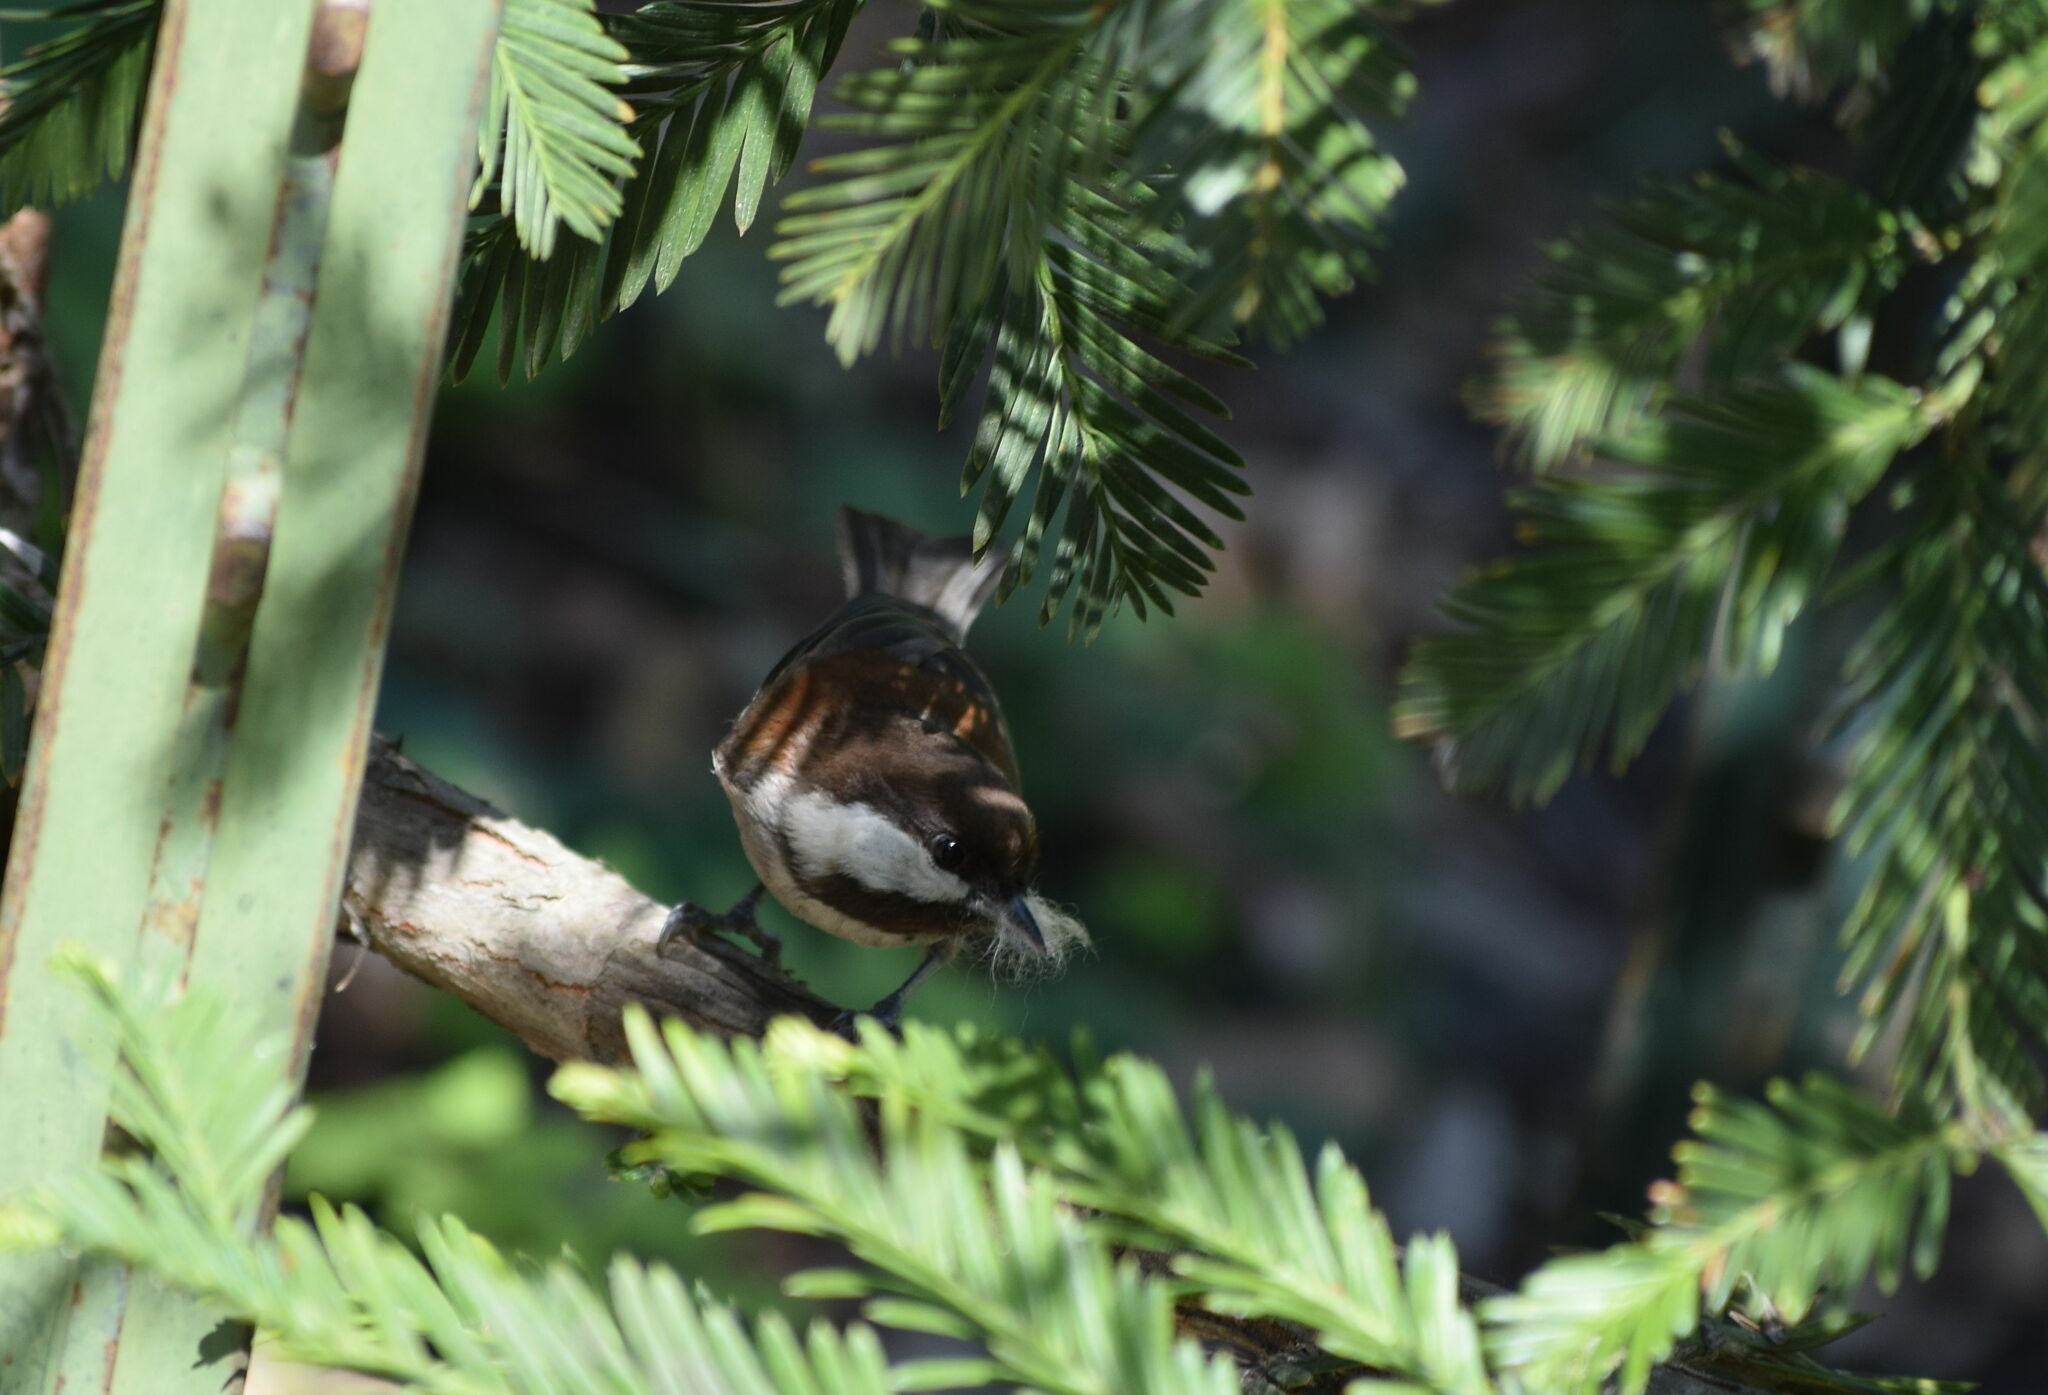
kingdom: Animalia
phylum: Chordata
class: Aves
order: Passeriformes
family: Paridae
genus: Poecile
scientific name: Poecile rufescens
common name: Chestnut-backed chickadee
